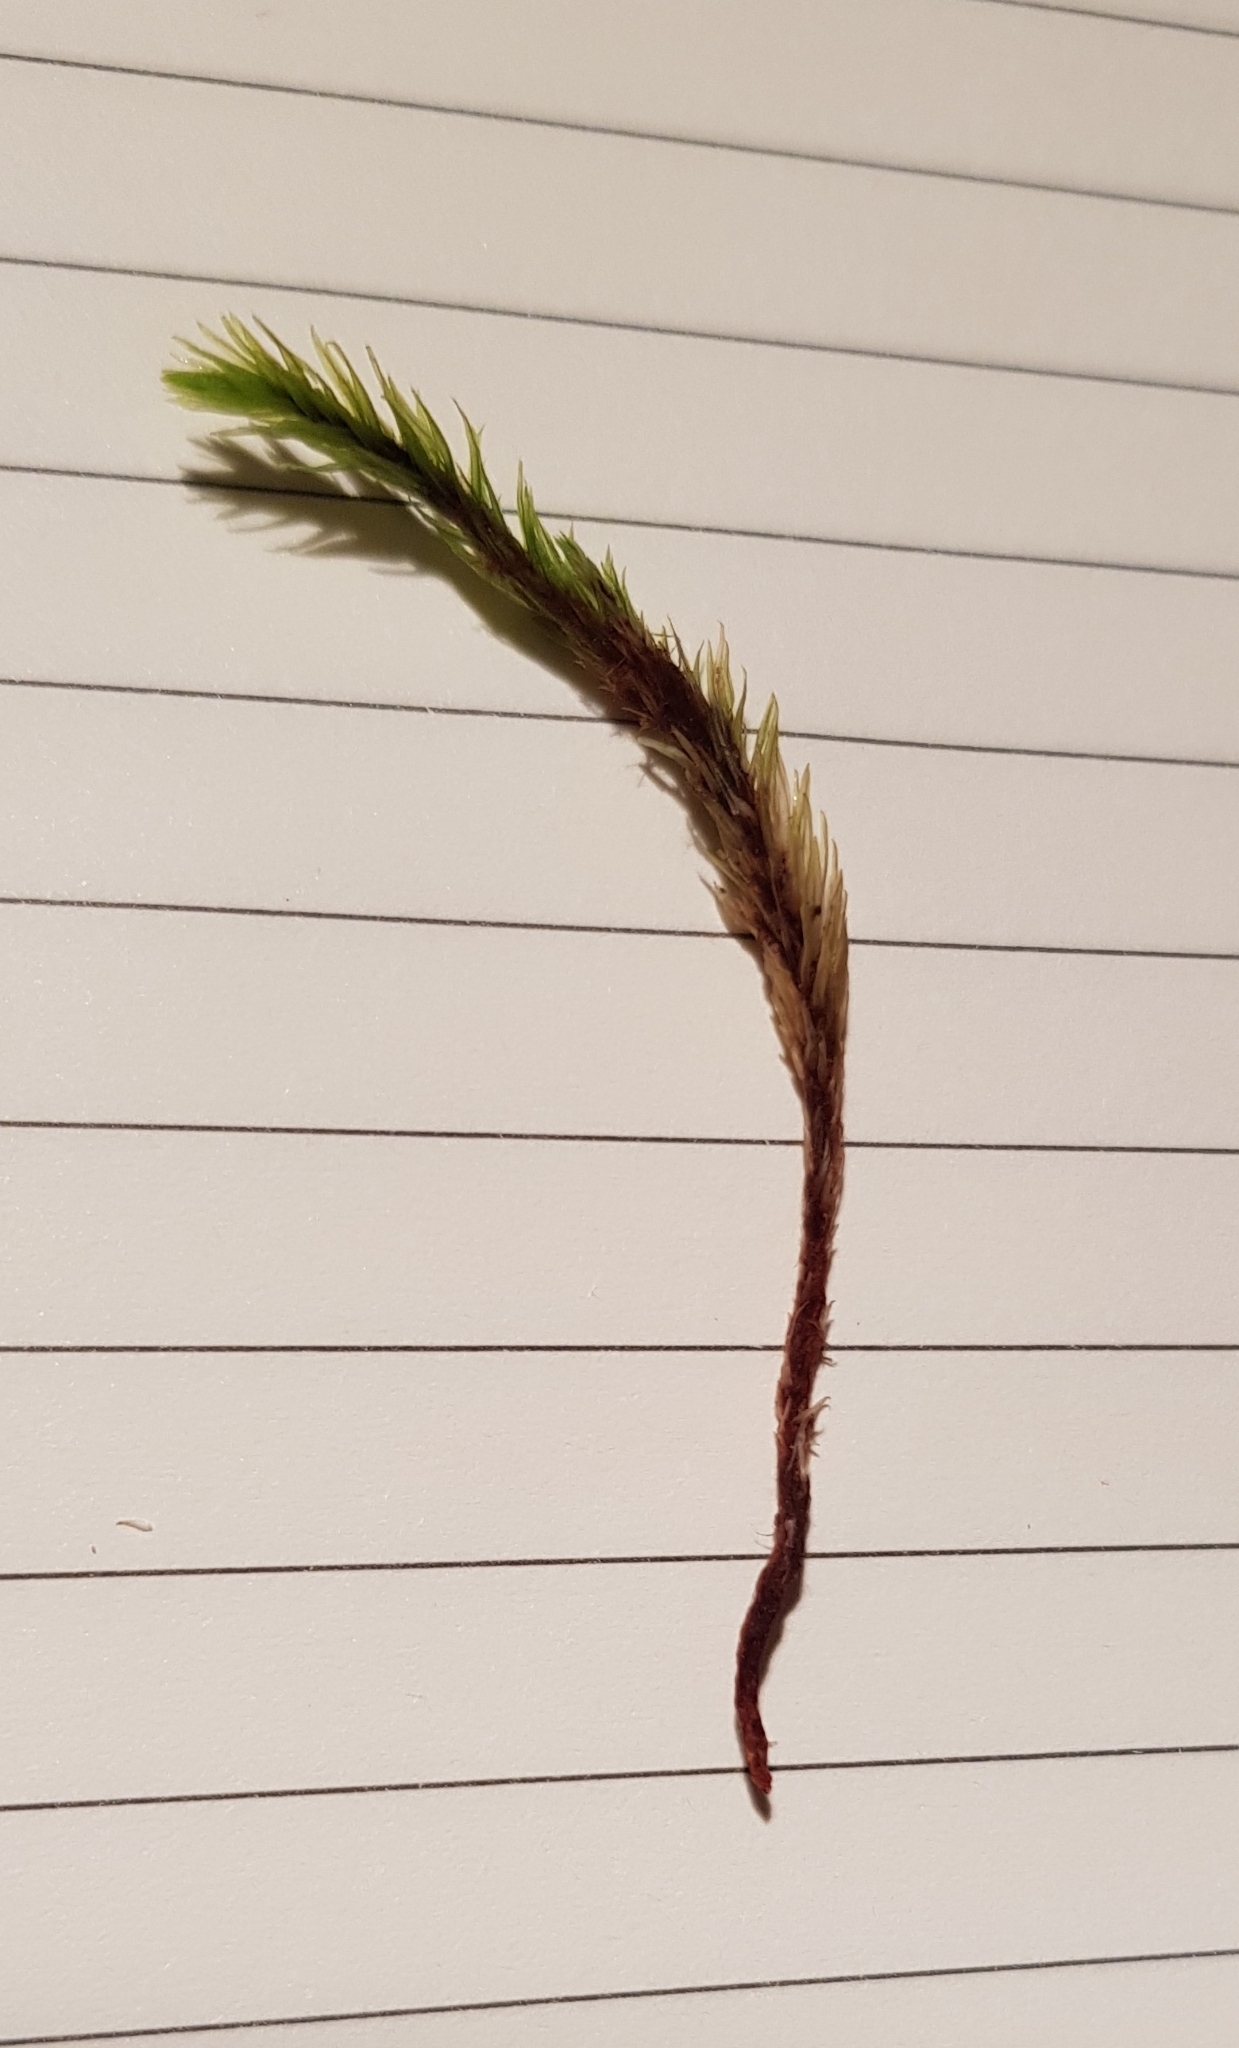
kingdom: Plantae
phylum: Bryophyta
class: Bryopsida
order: Aulacomniales
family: Aulacomniaceae
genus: Aulacomnium
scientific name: Aulacomnium palustre
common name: Bog groove-moss
